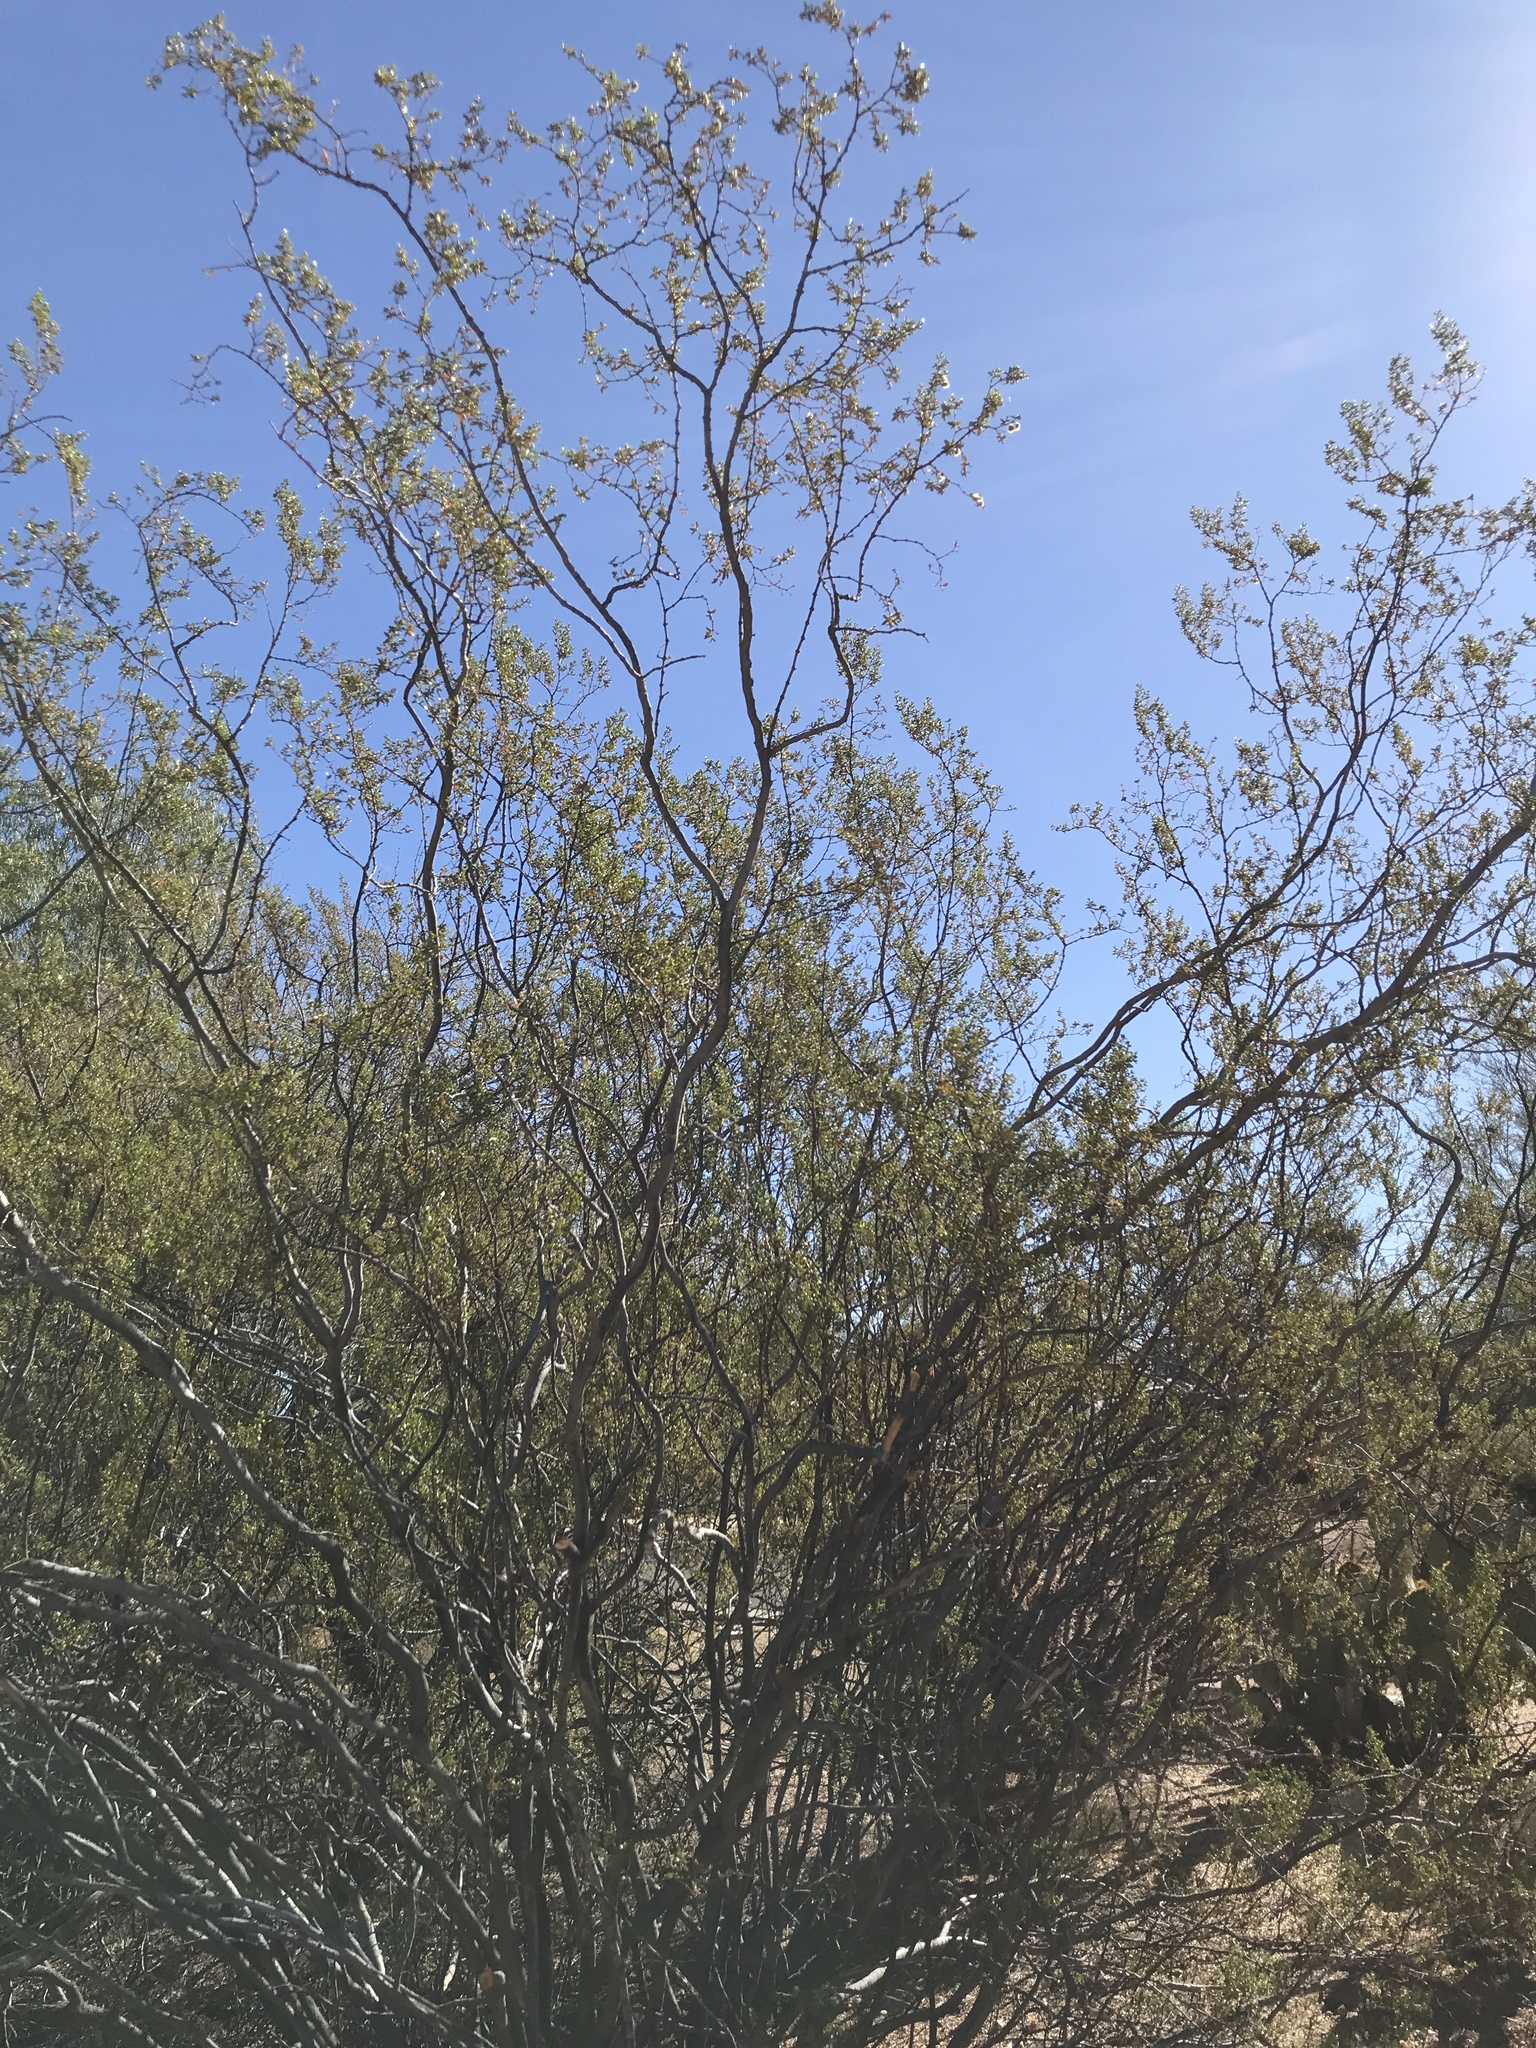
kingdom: Plantae
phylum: Tracheophyta
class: Magnoliopsida
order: Zygophyllales
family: Zygophyllaceae
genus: Larrea
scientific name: Larrea tridentata
